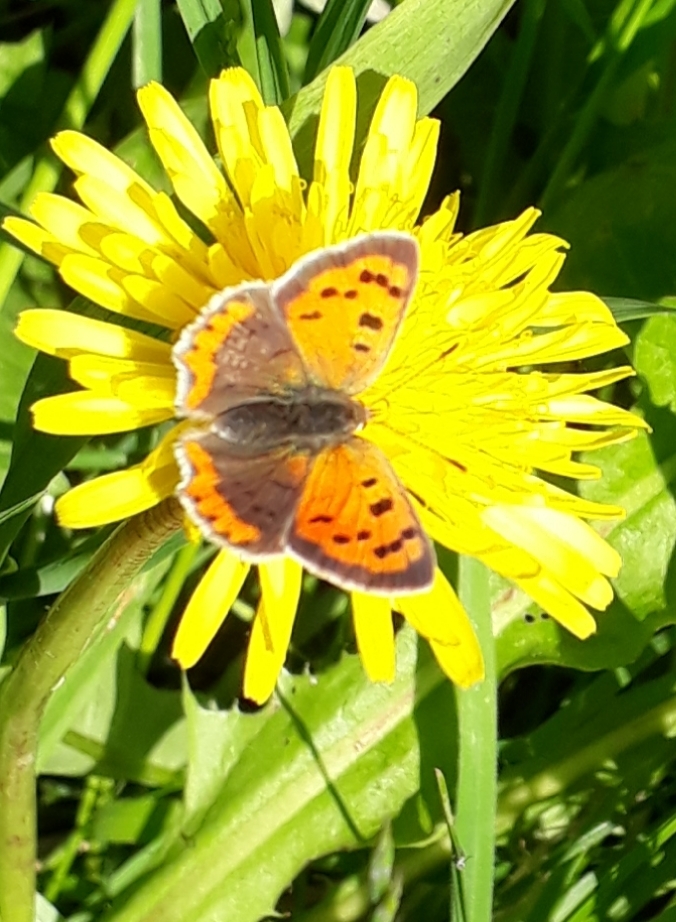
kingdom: Animalia
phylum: Arthropoda
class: Insecta
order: Lepidoptera
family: Lycaenidae
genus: Lycaena
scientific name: Lycaena phlaeas
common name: Small copper
